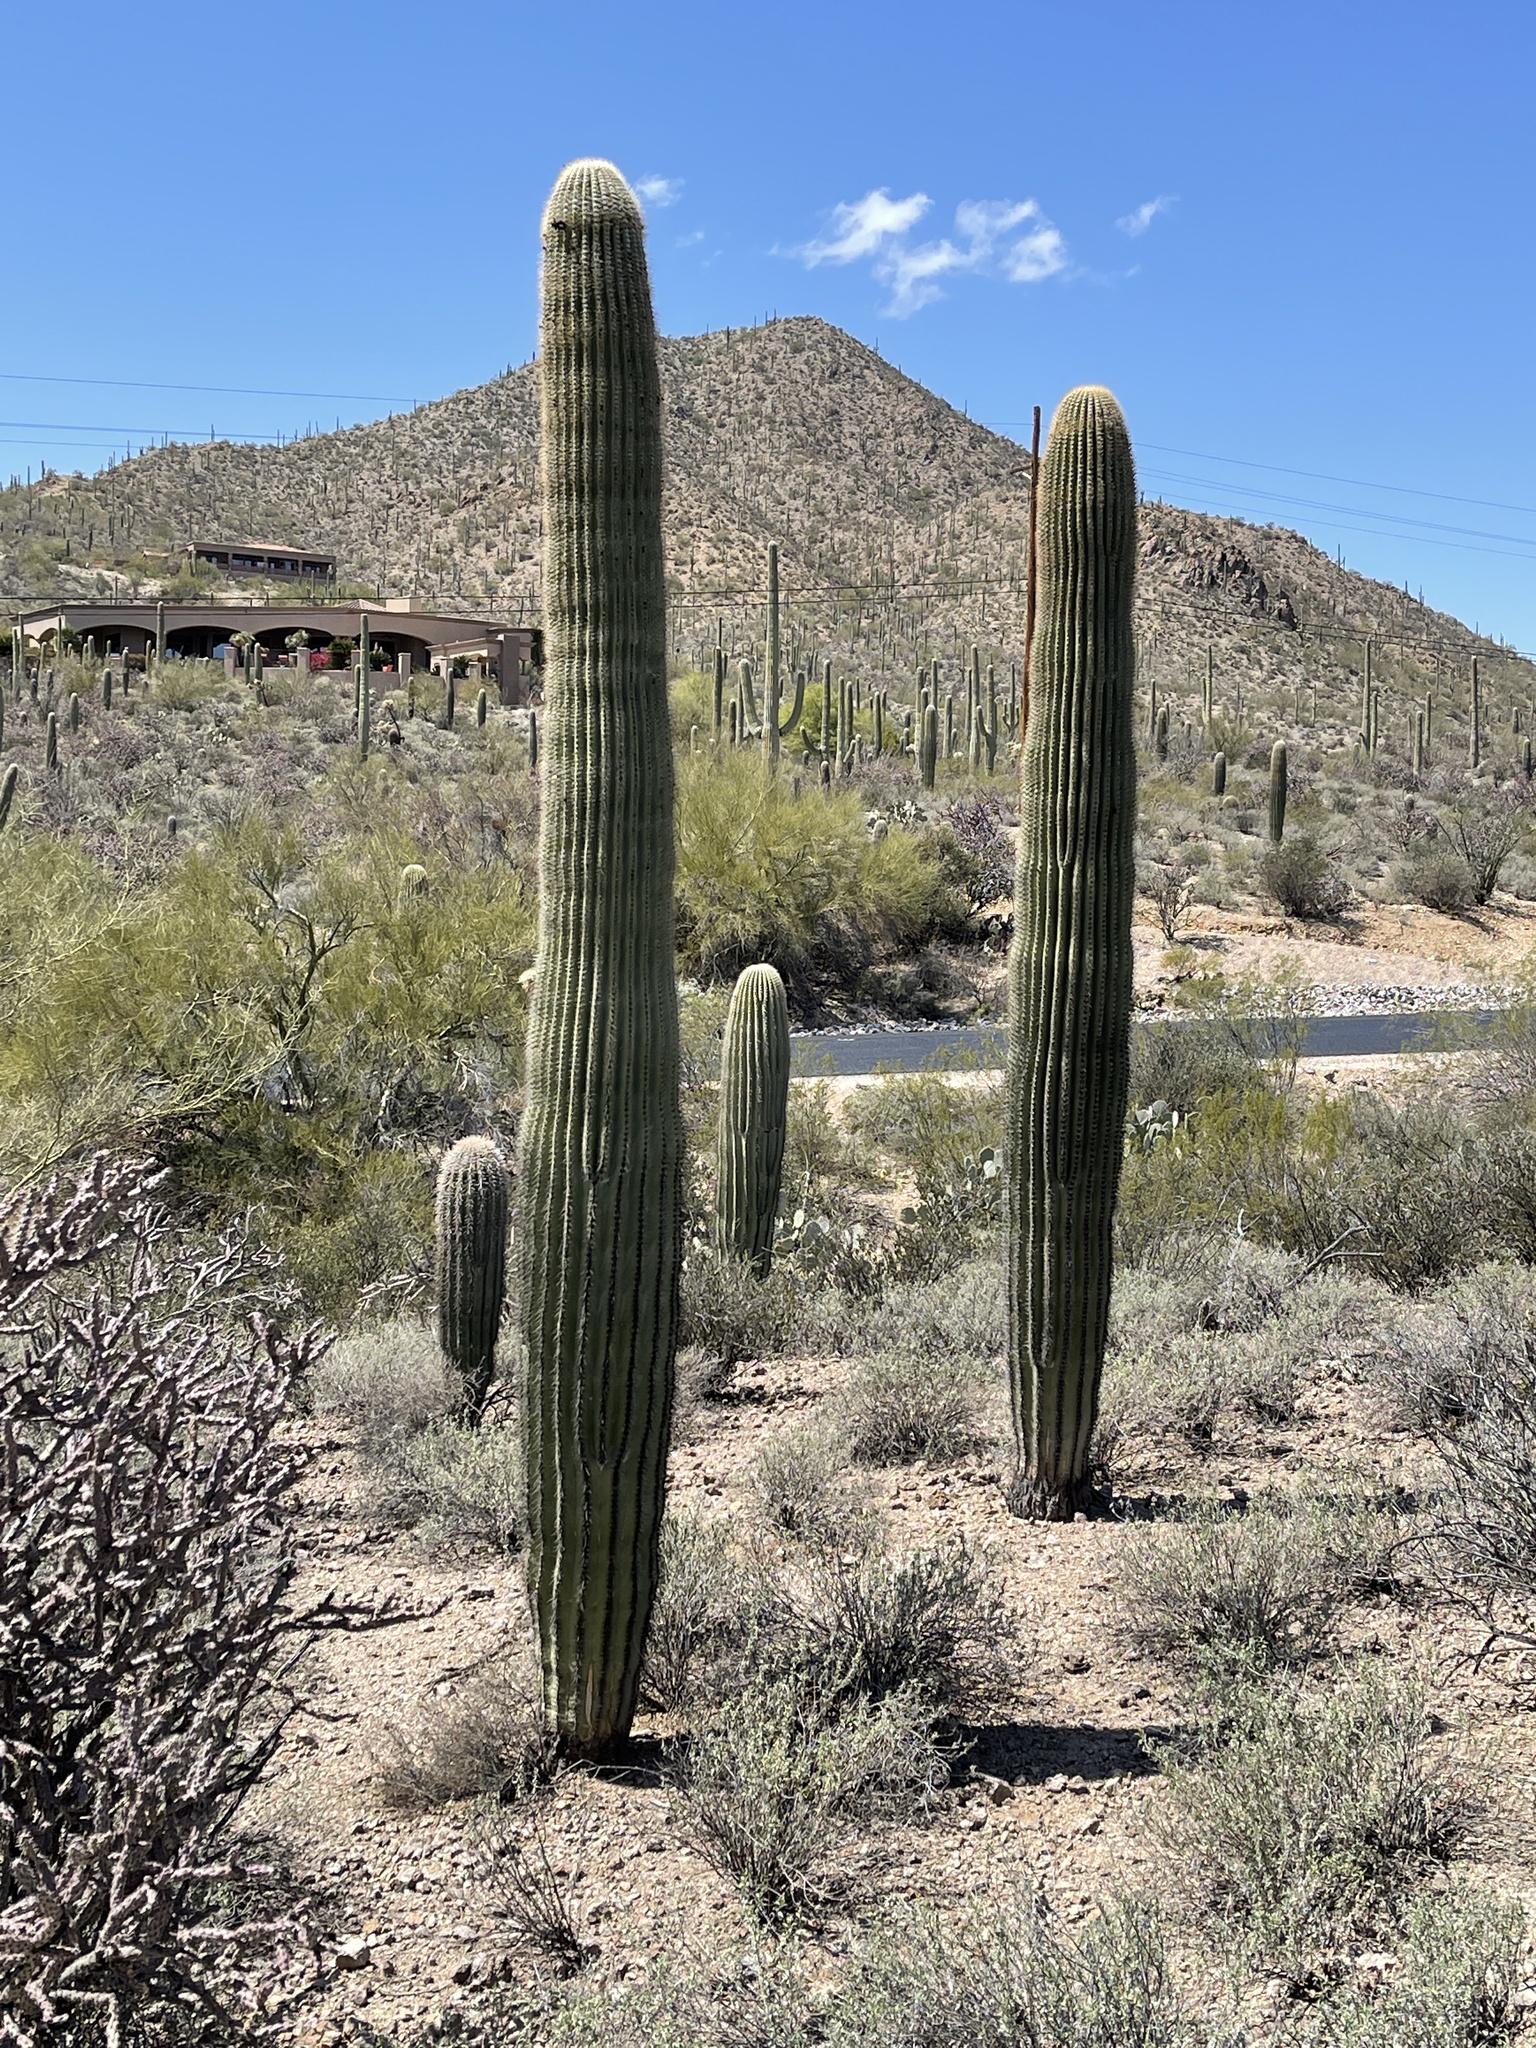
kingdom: Plantae
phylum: Tracheophyta
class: Magnoliopsida
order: Caryophyllales
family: Cactaceae
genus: Carnegiea
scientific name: Carnegiea gigantea
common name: Saguaro
